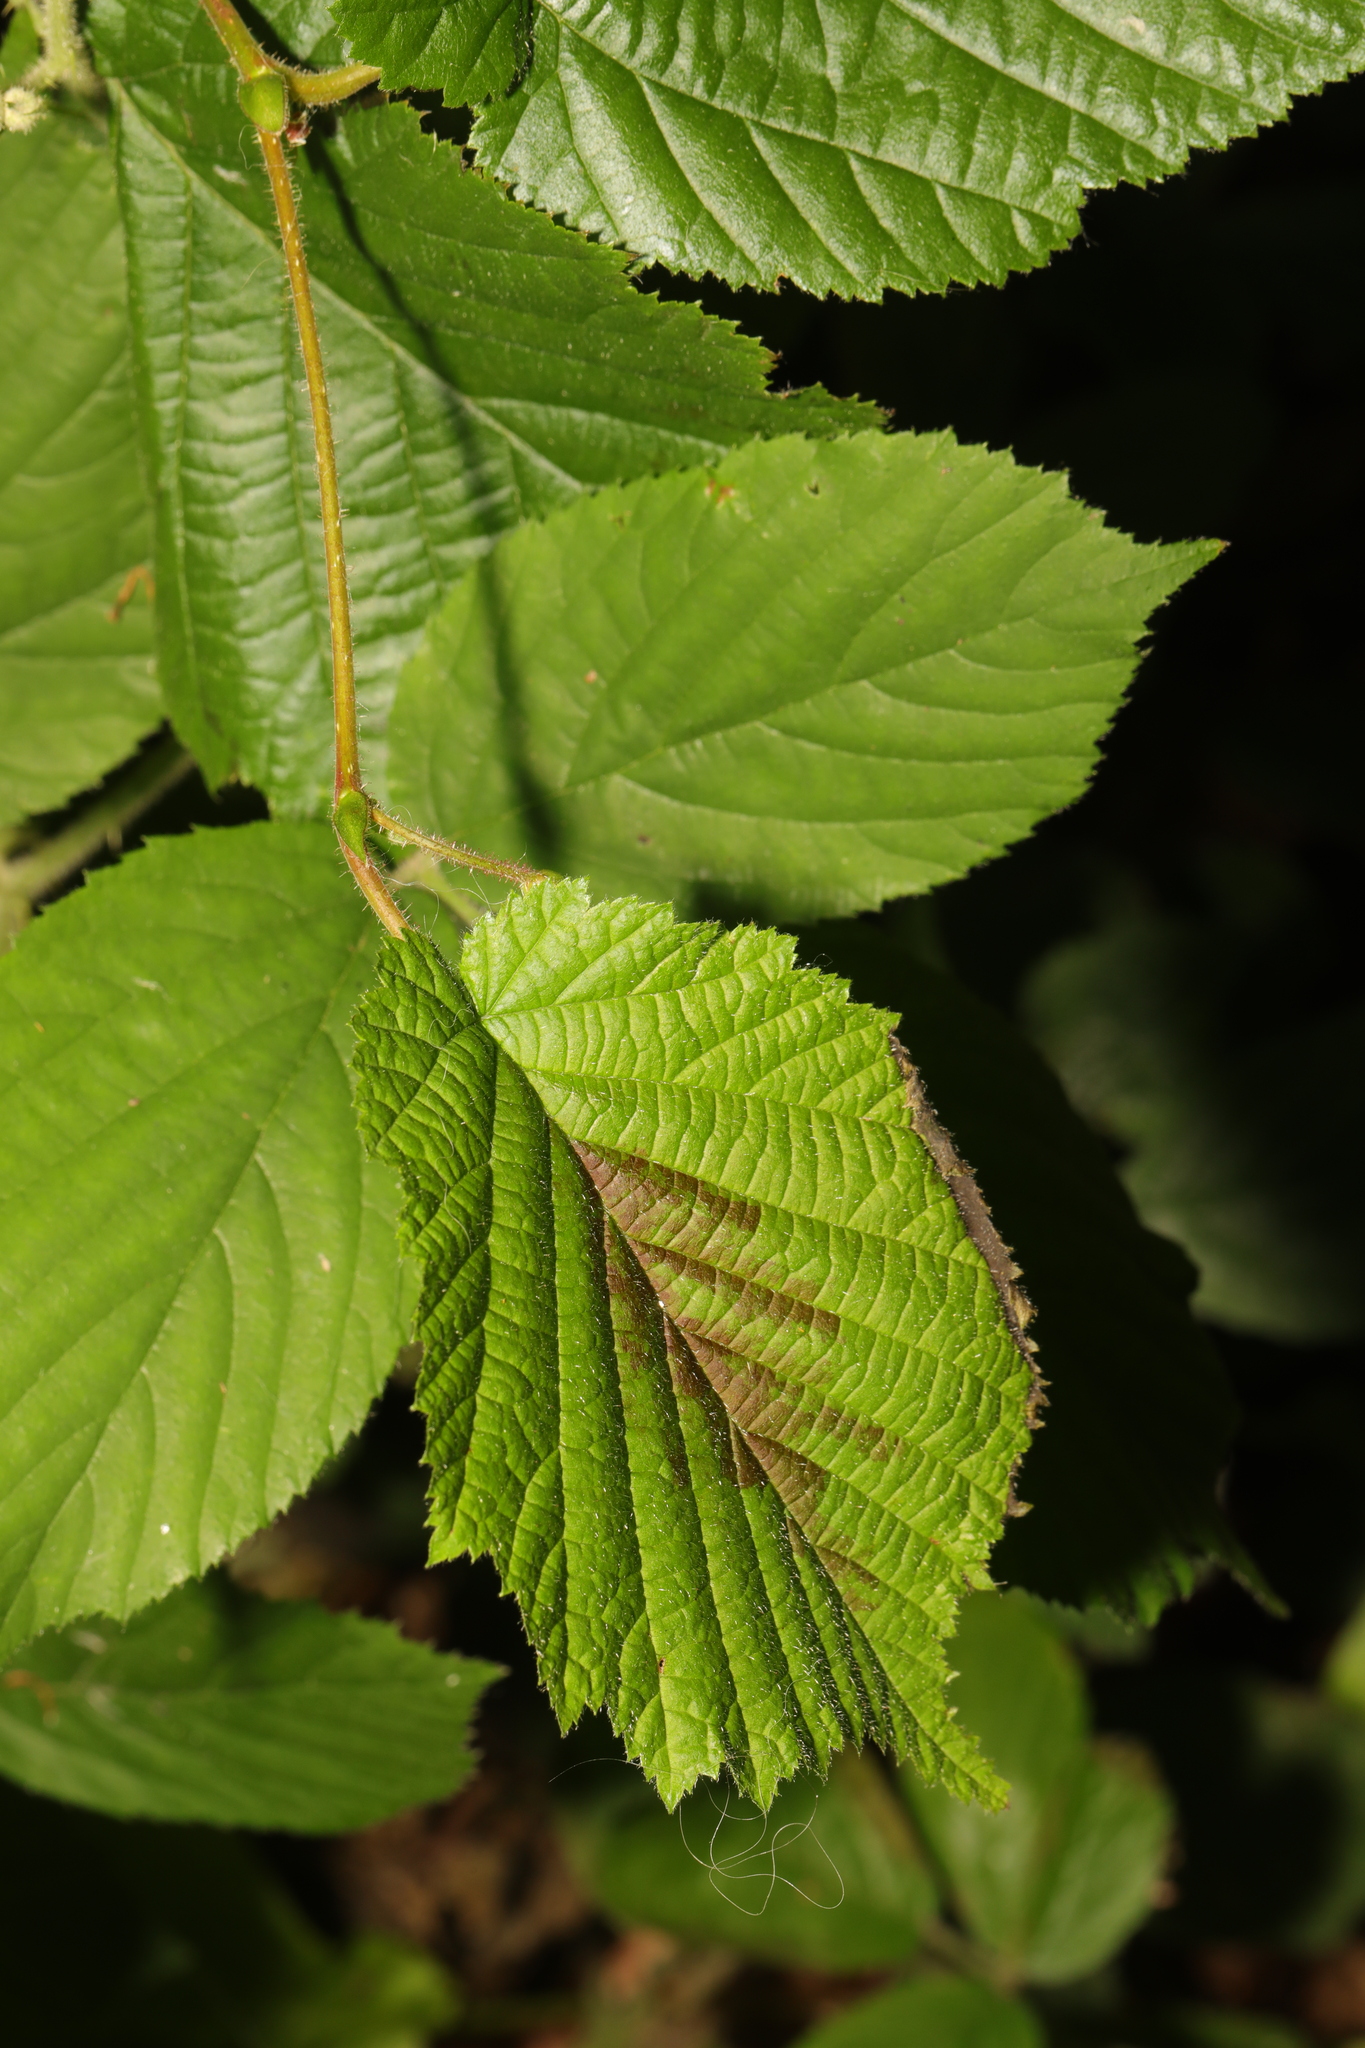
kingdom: Plantae
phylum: Tracheophyta
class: Magnoliopsida
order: Fagales
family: Betulaceae
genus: Corylus
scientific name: Corylus avellana
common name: European hazel
